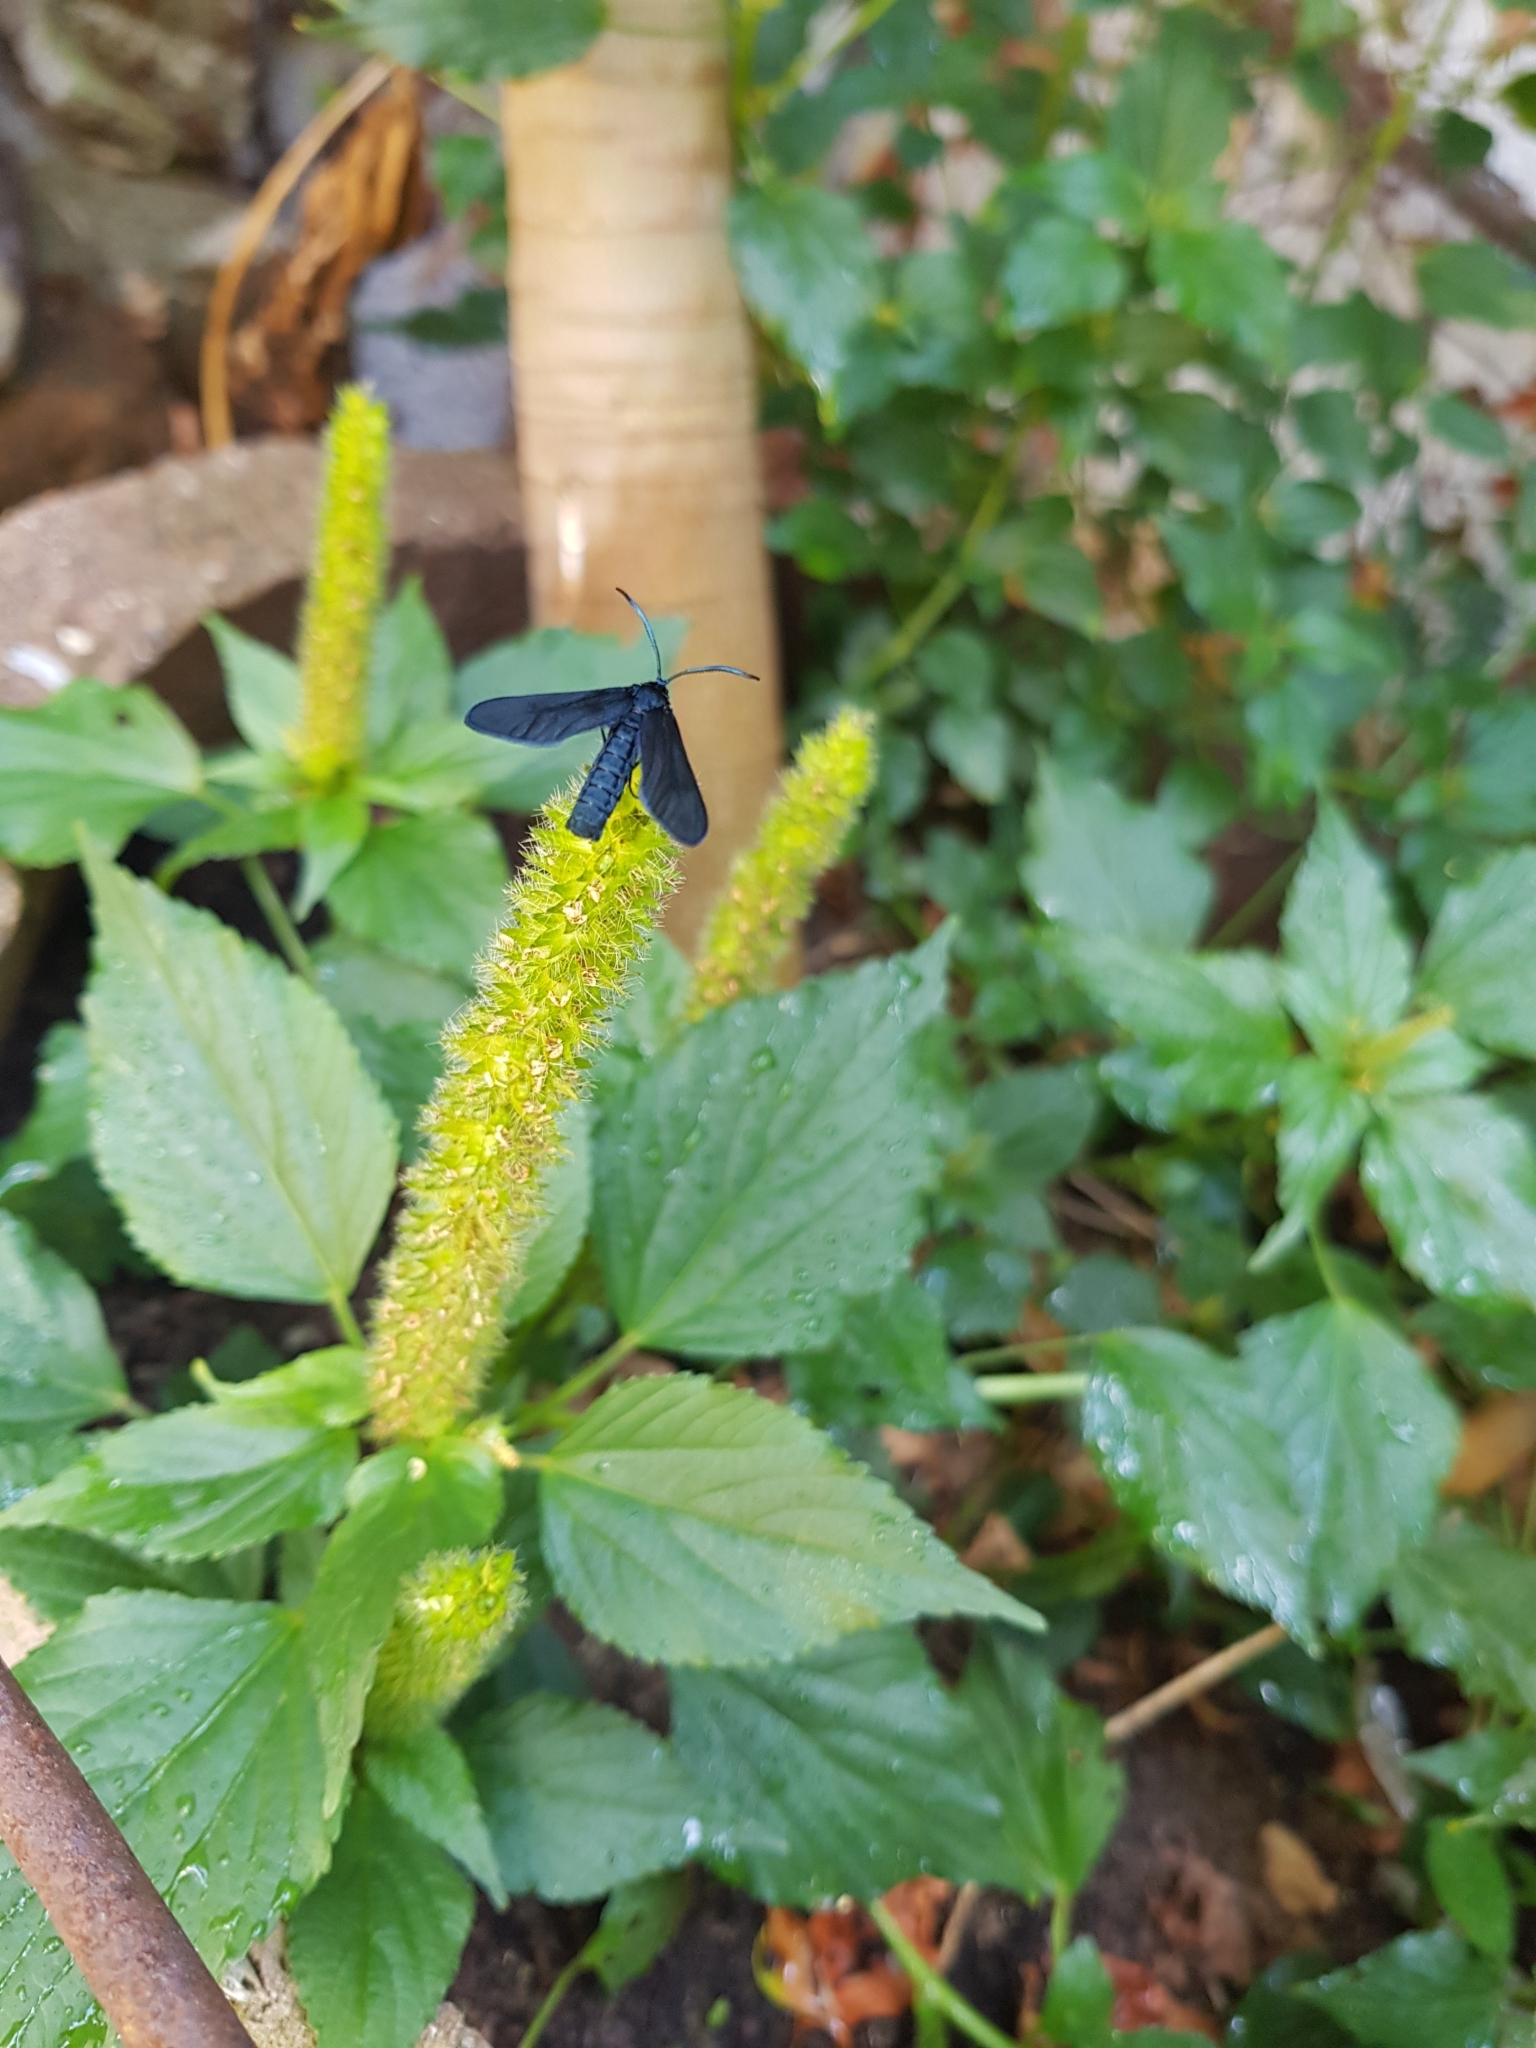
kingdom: Animalia
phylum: Arthropoda
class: Insecta
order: Lepidoptera
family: Zygaenidae
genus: Harrisina
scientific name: Harrisina metallica
